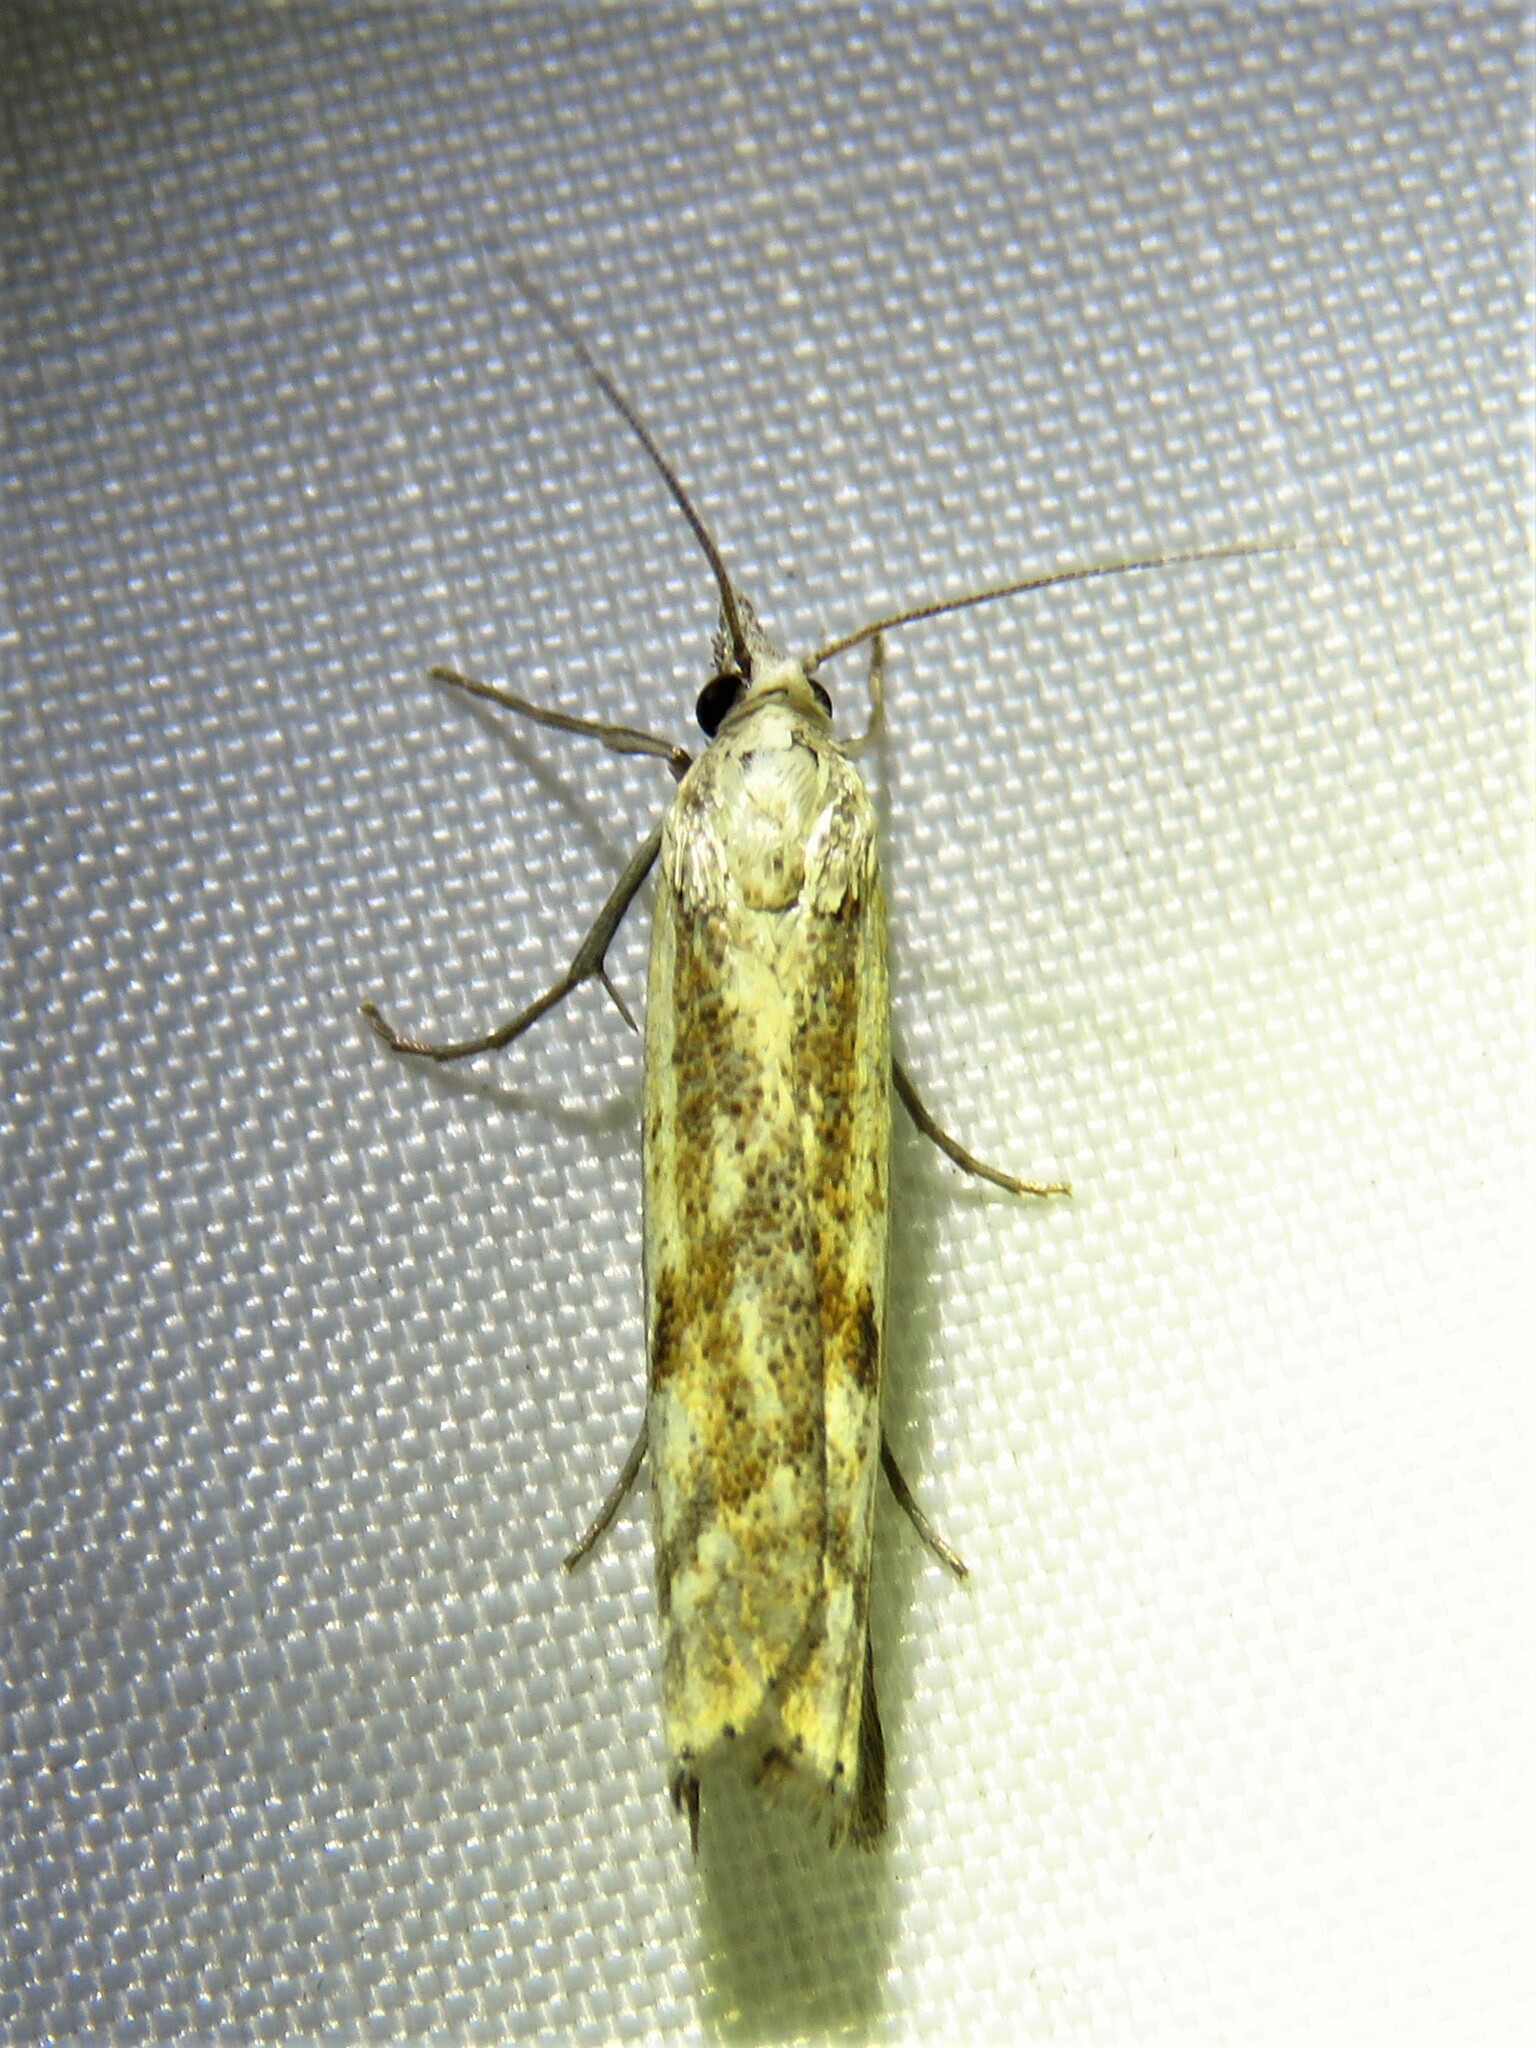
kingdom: Animalia
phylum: Arthropoda
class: Insecta
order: Lepidoptera
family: Crambidae
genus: Agriphila
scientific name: Agriphila inquinatella
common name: Barred grass-veneer
